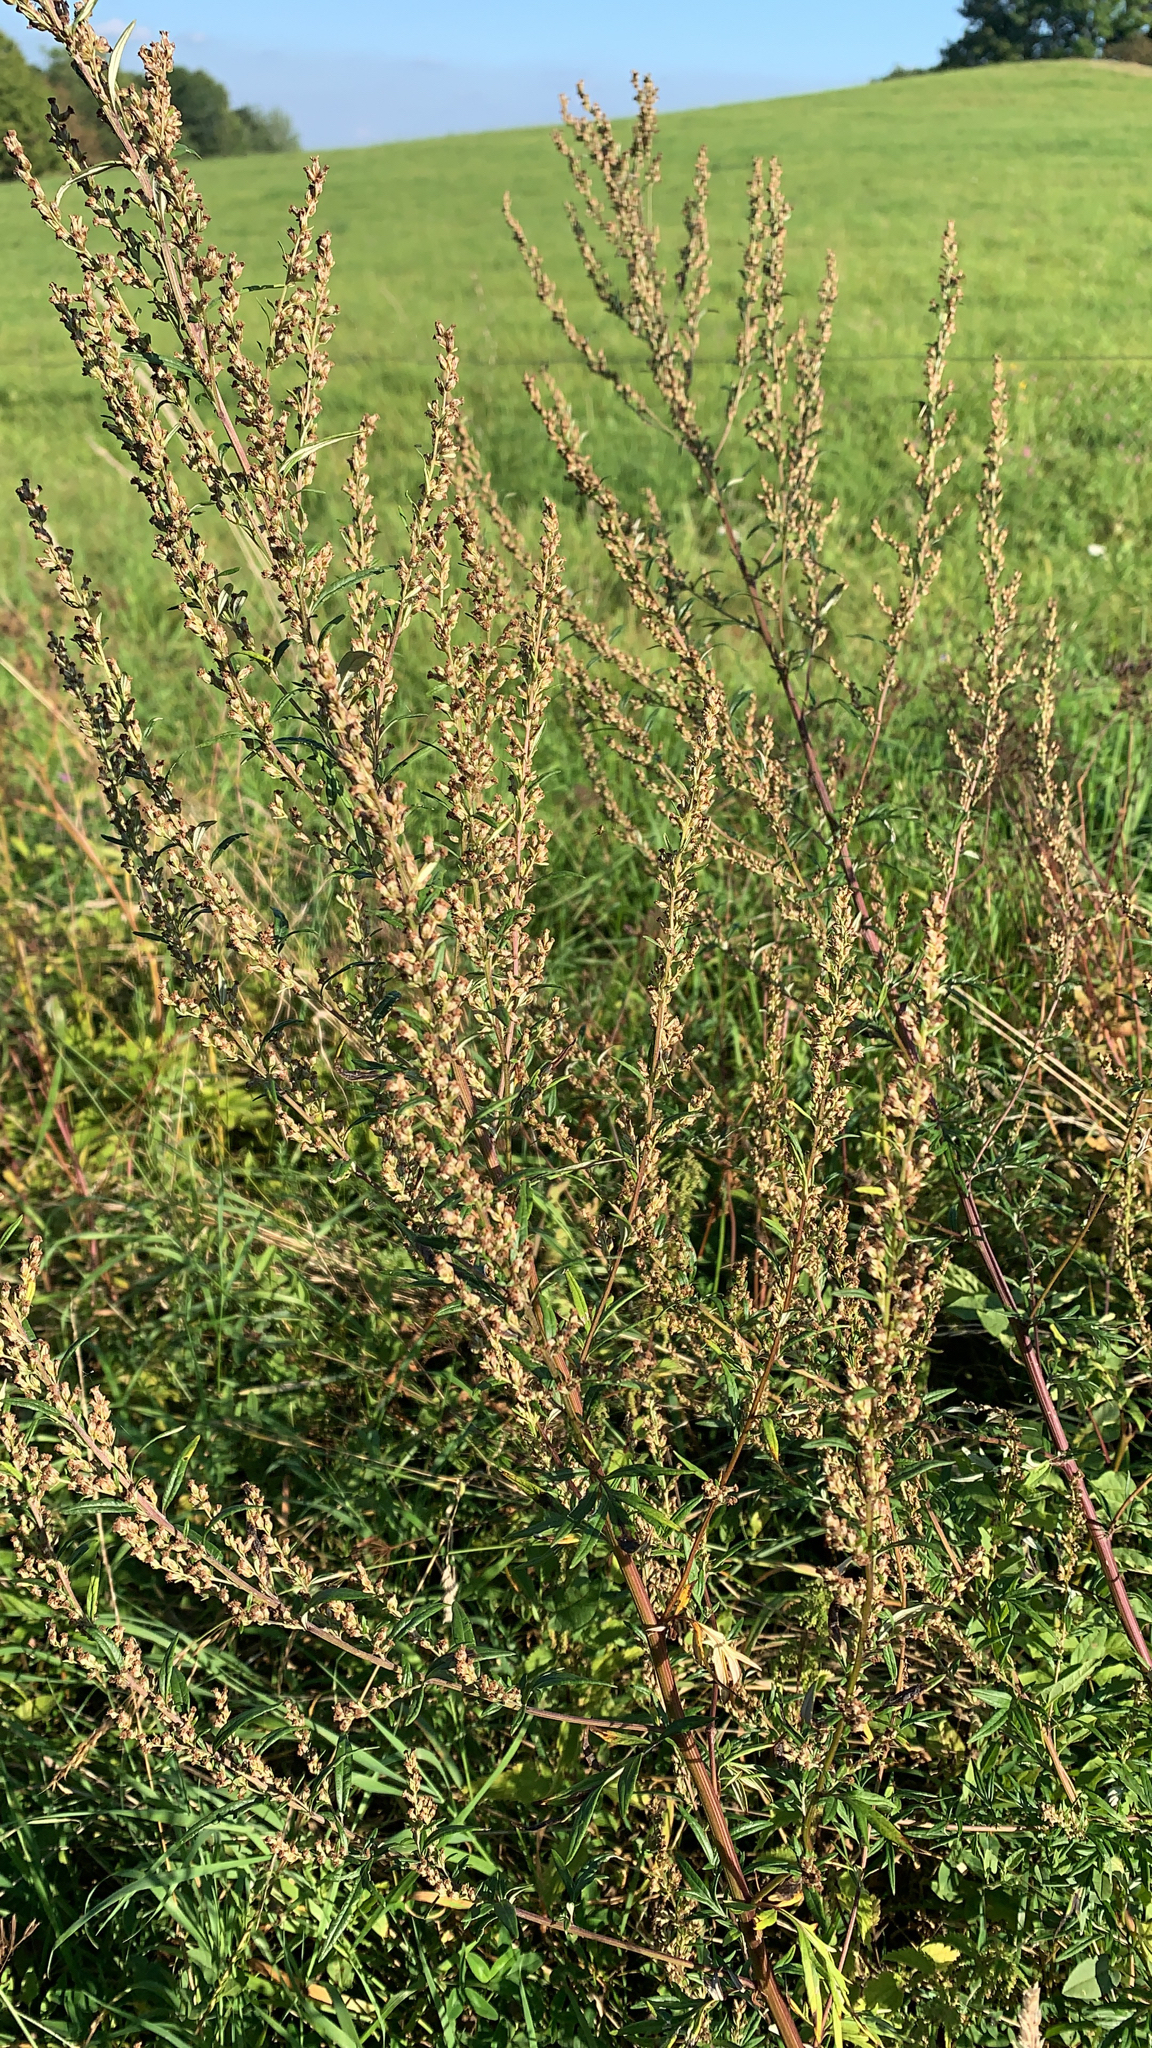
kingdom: Plantae
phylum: Tracheophyta
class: Magnoliopsida
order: Asterales
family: Asteraceae
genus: Artemisia
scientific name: Artemisia vulgaris
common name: Mugwort
